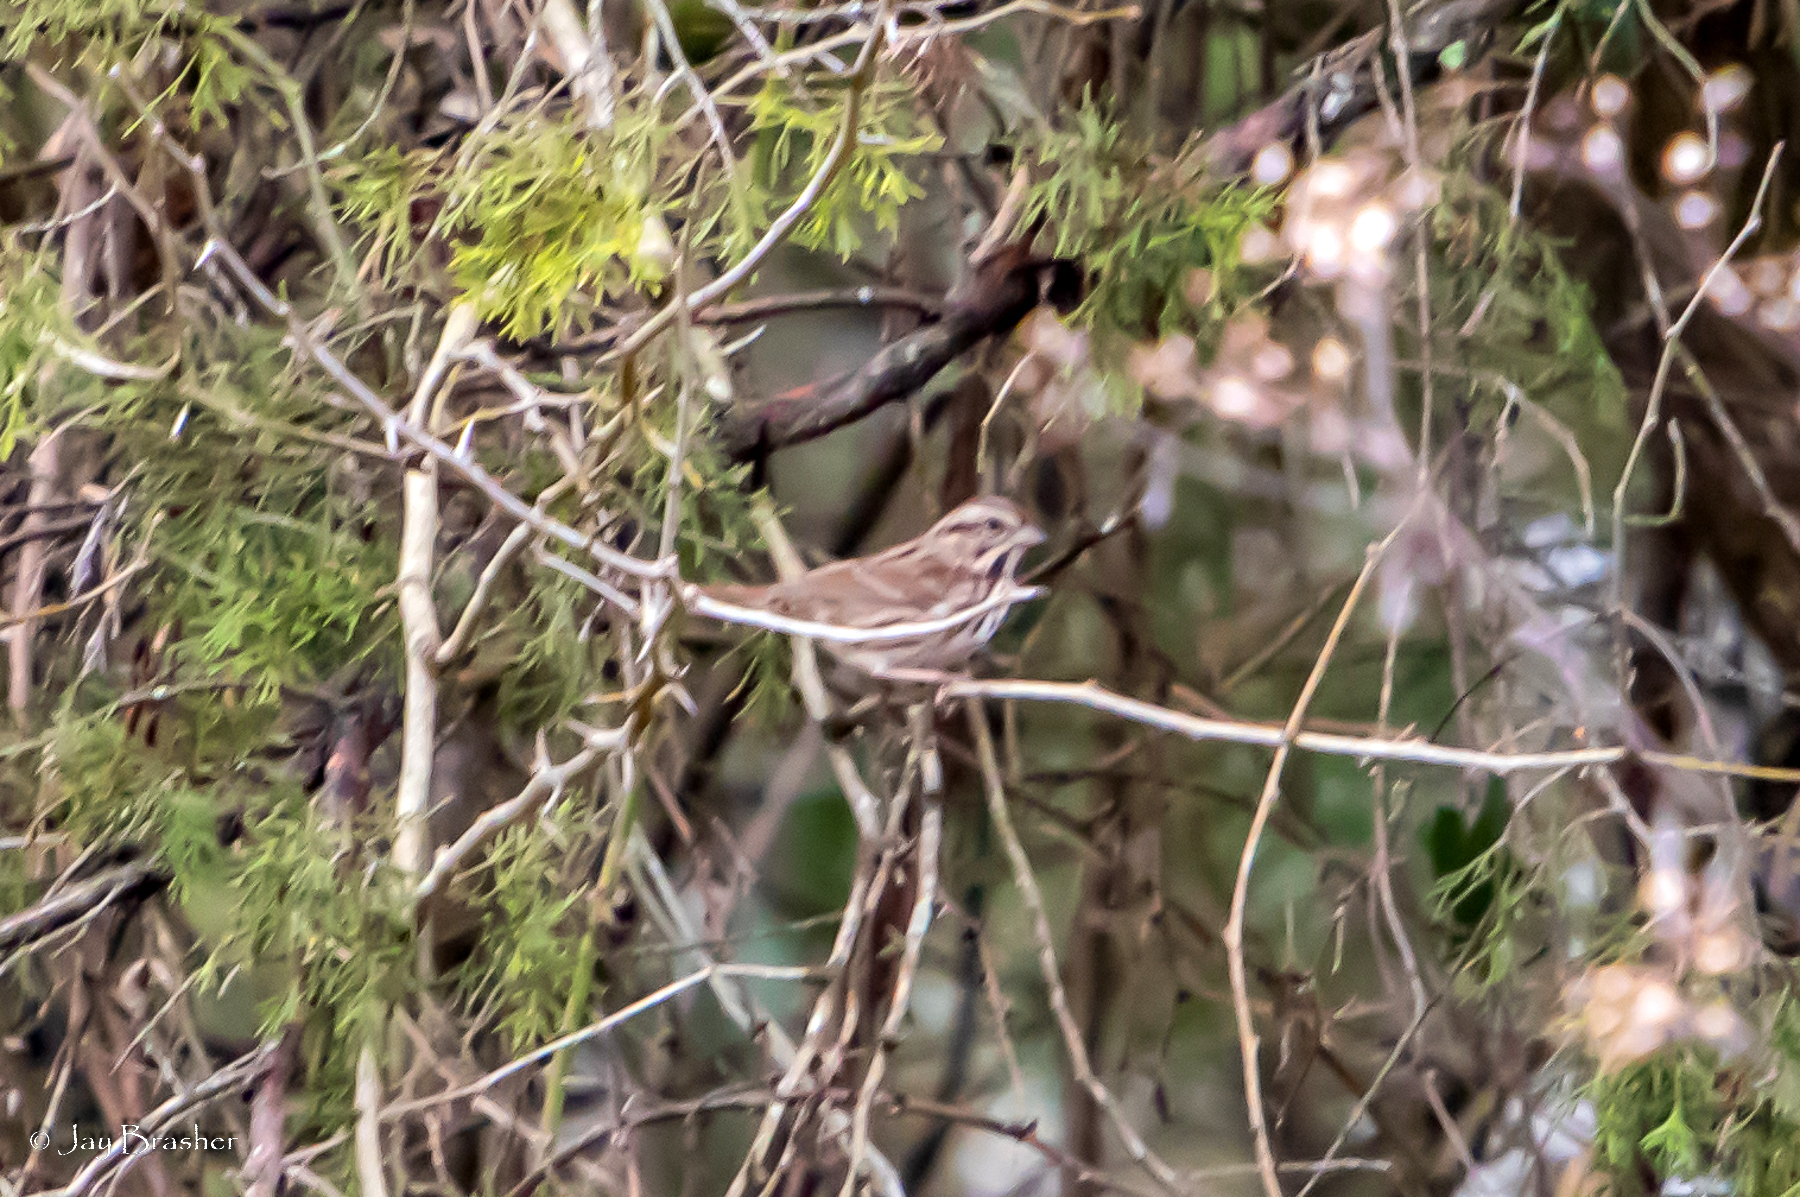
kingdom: Animalia
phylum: Chordata
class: Aves
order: Passeriformes
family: Passerellidae
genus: Melospiza
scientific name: Melospiza melodia
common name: Song sparrow
